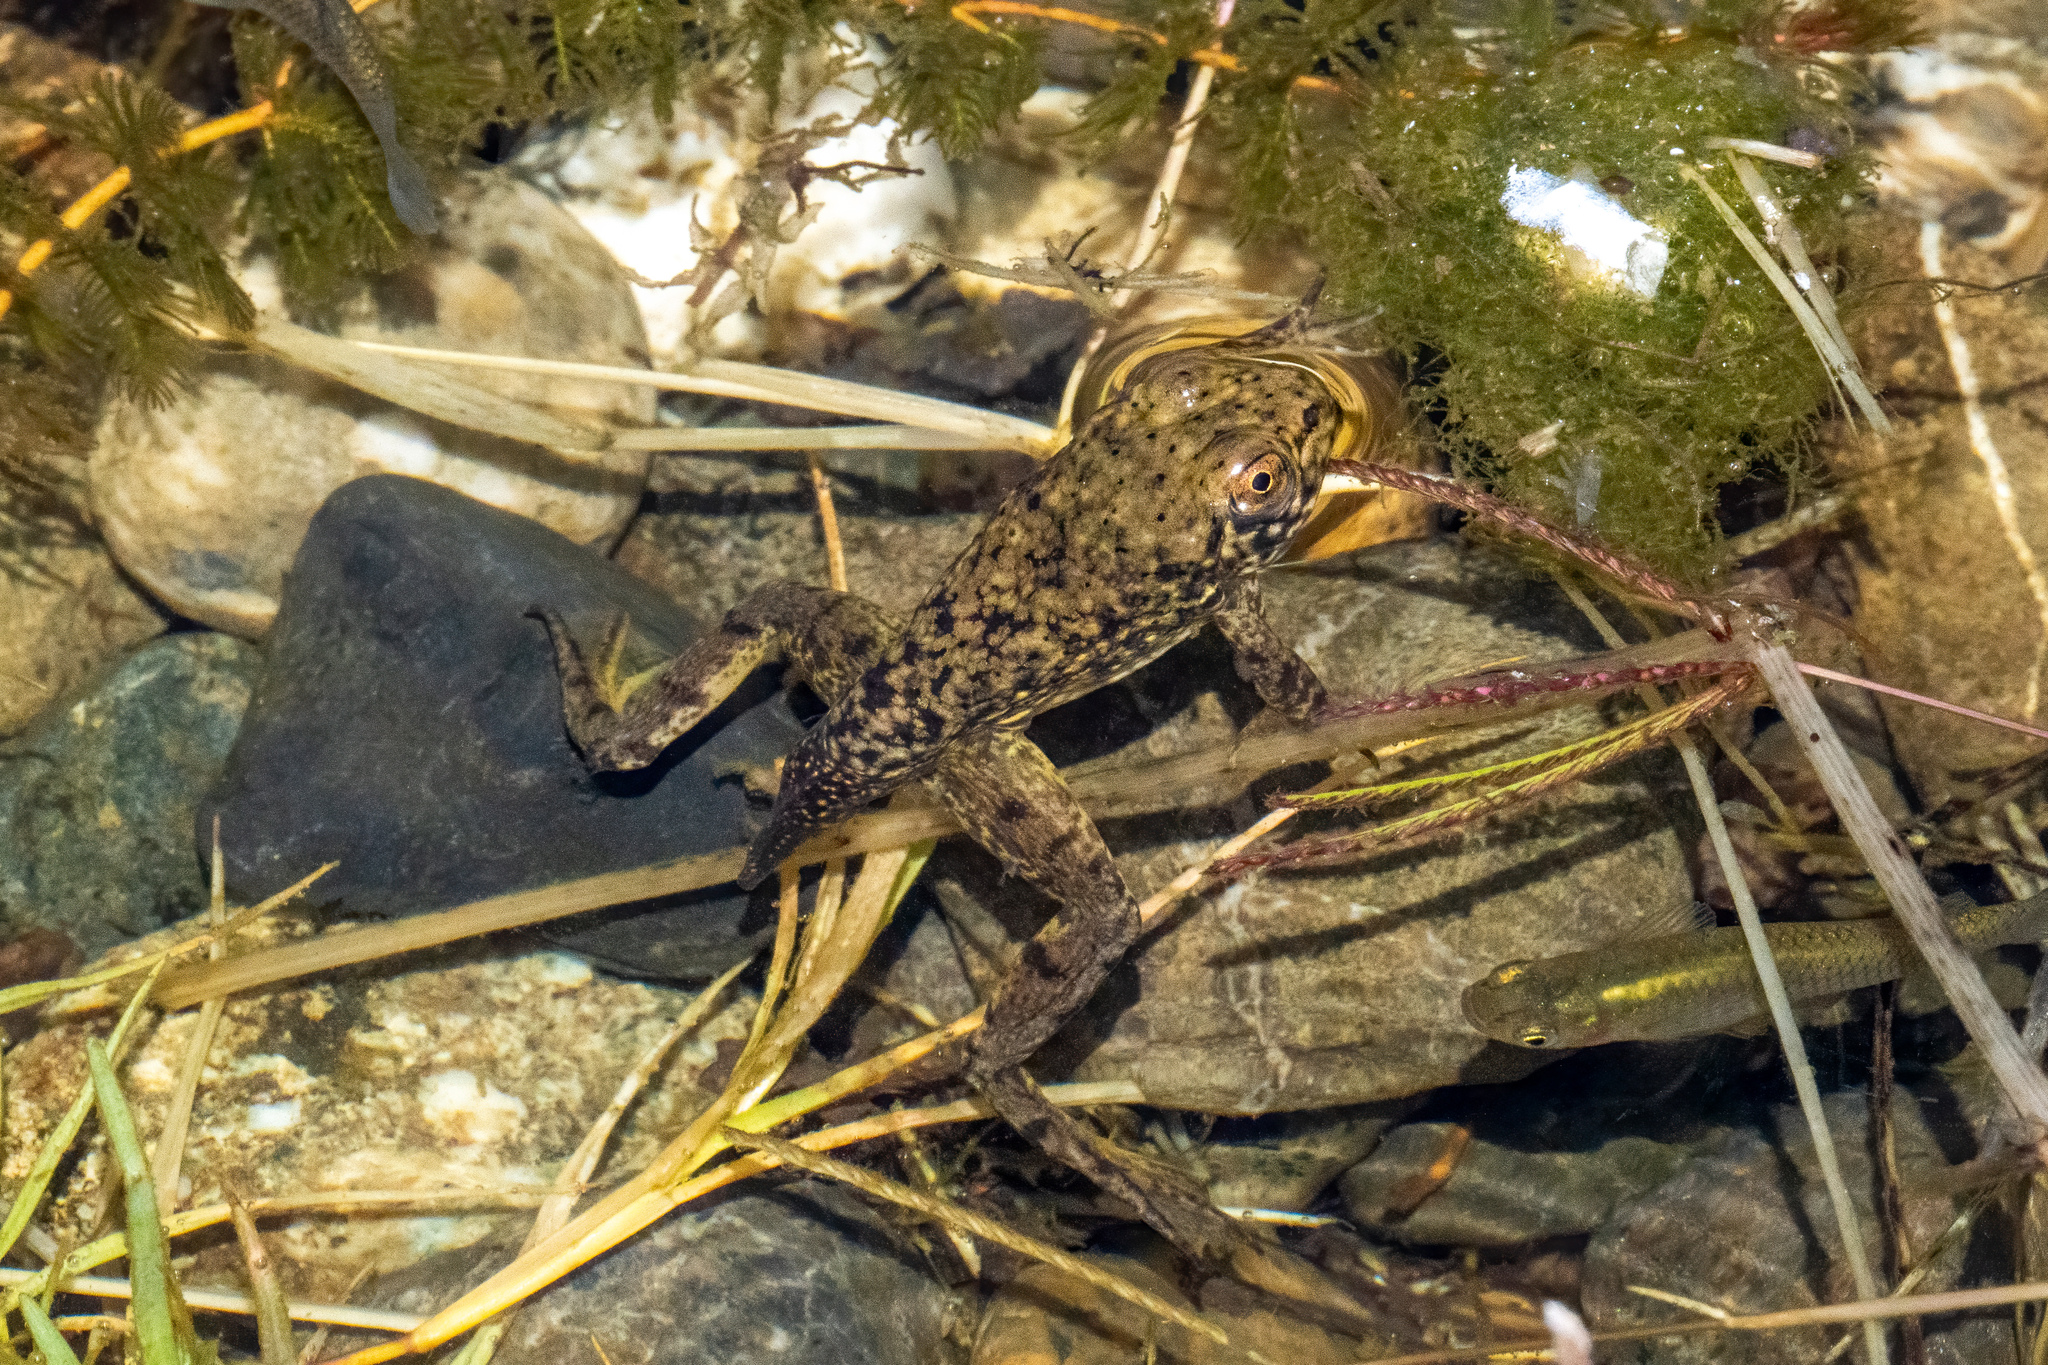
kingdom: Animalia
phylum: Chordata
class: Amphibia
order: Anura
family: Ranidae
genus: Lithobates
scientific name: Lithobates catesbeianus
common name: American bullfrog
